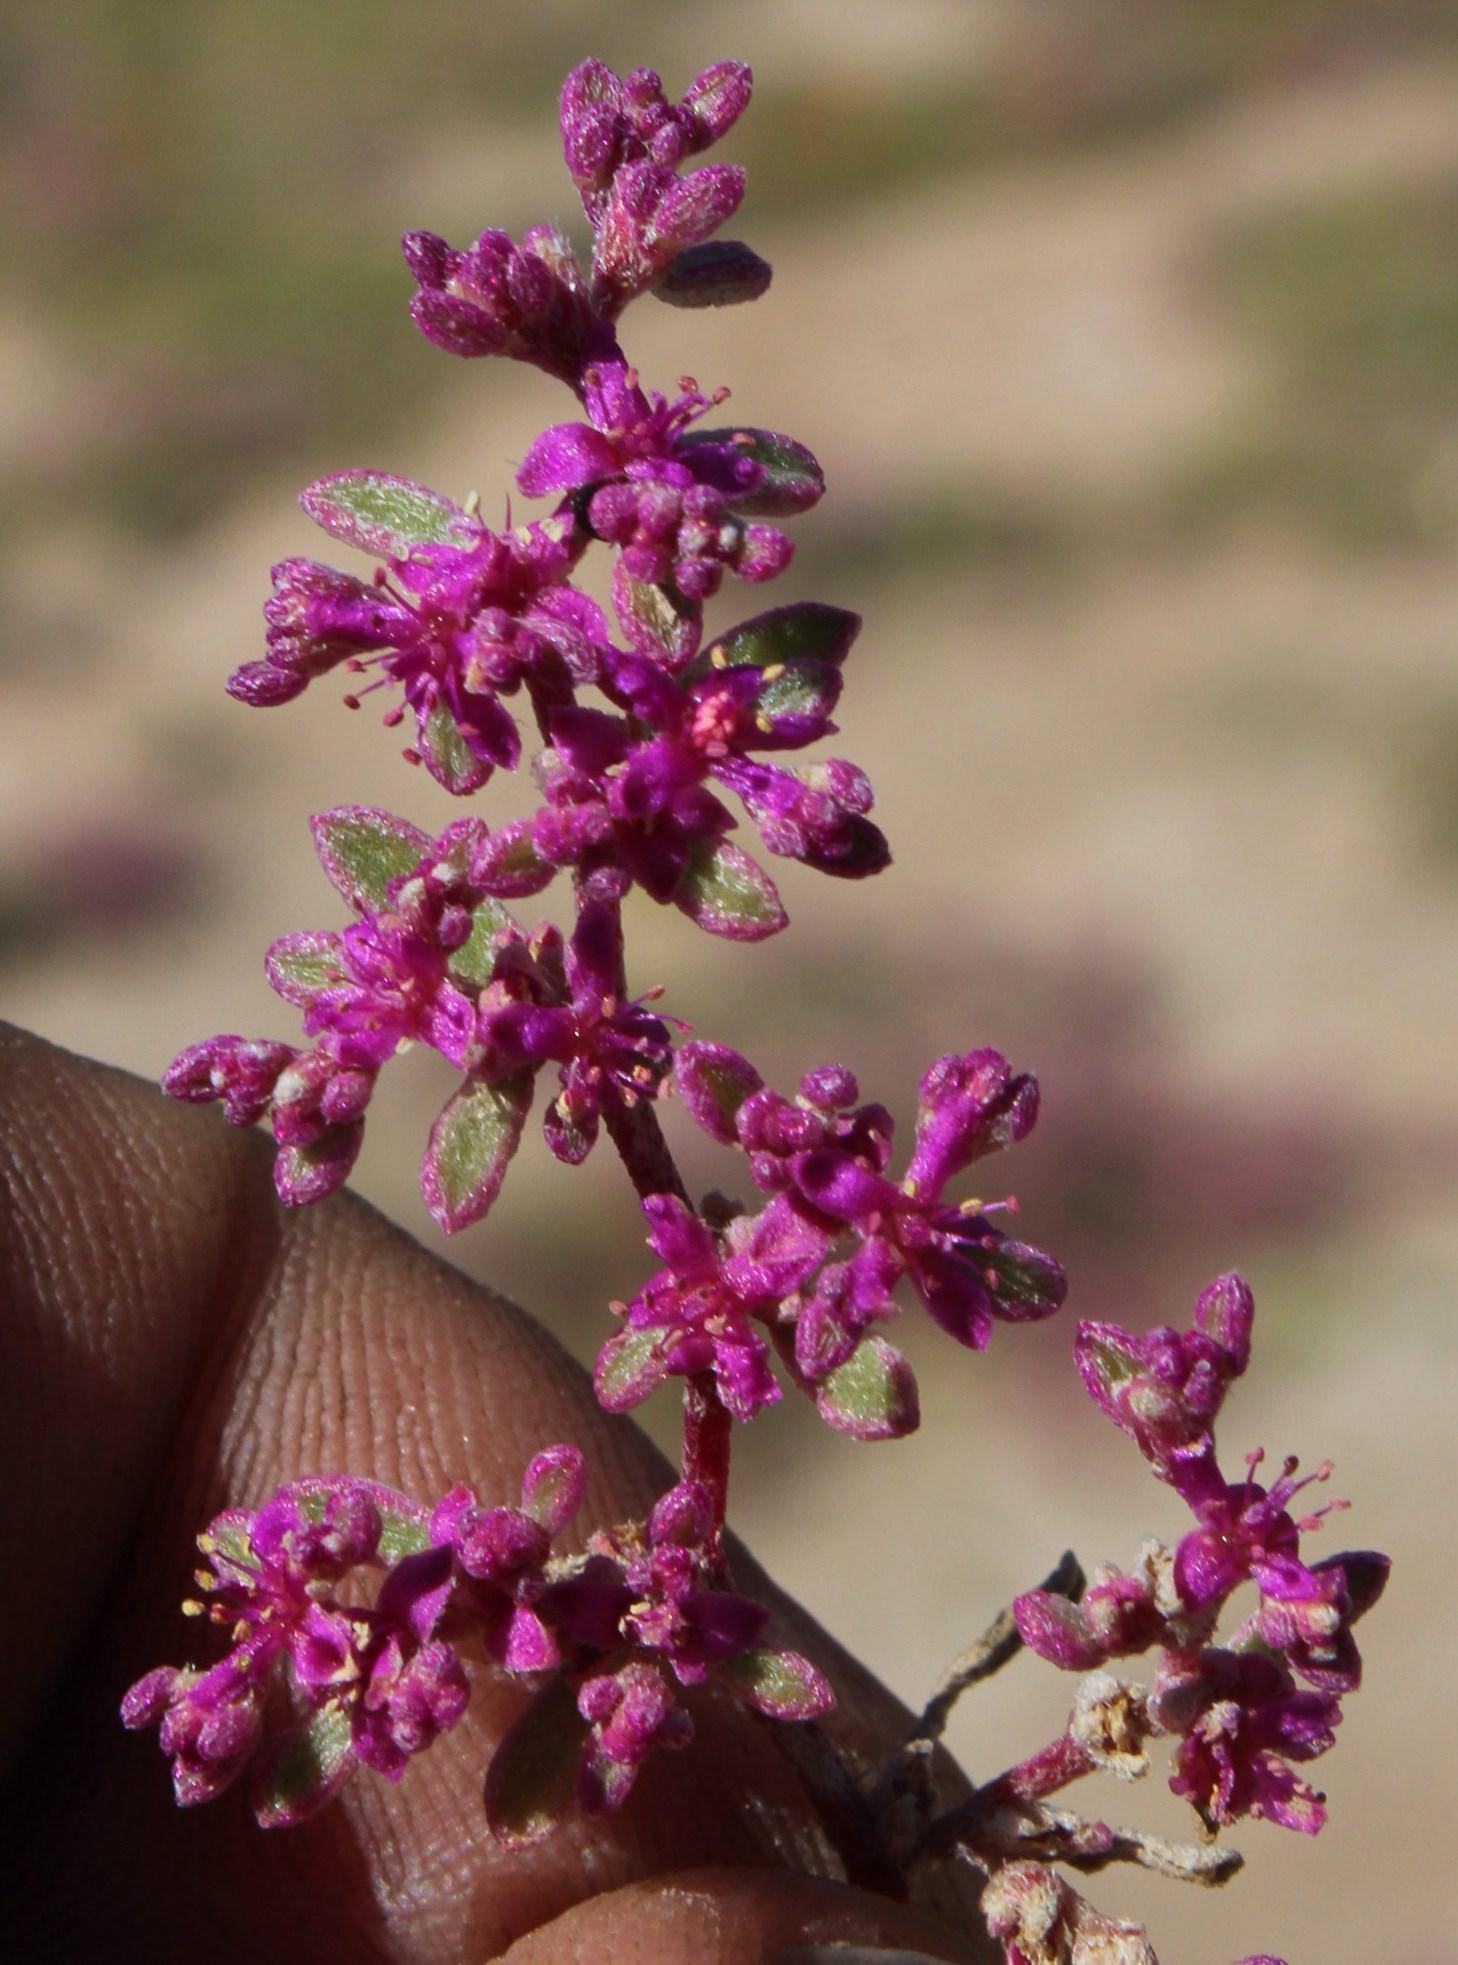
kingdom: Plantae
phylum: Tracheophyta
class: Magnoliopsida
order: Caryophyllales
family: Aizoaceae
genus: Aizoon
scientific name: Aizoon sarcophyllum
